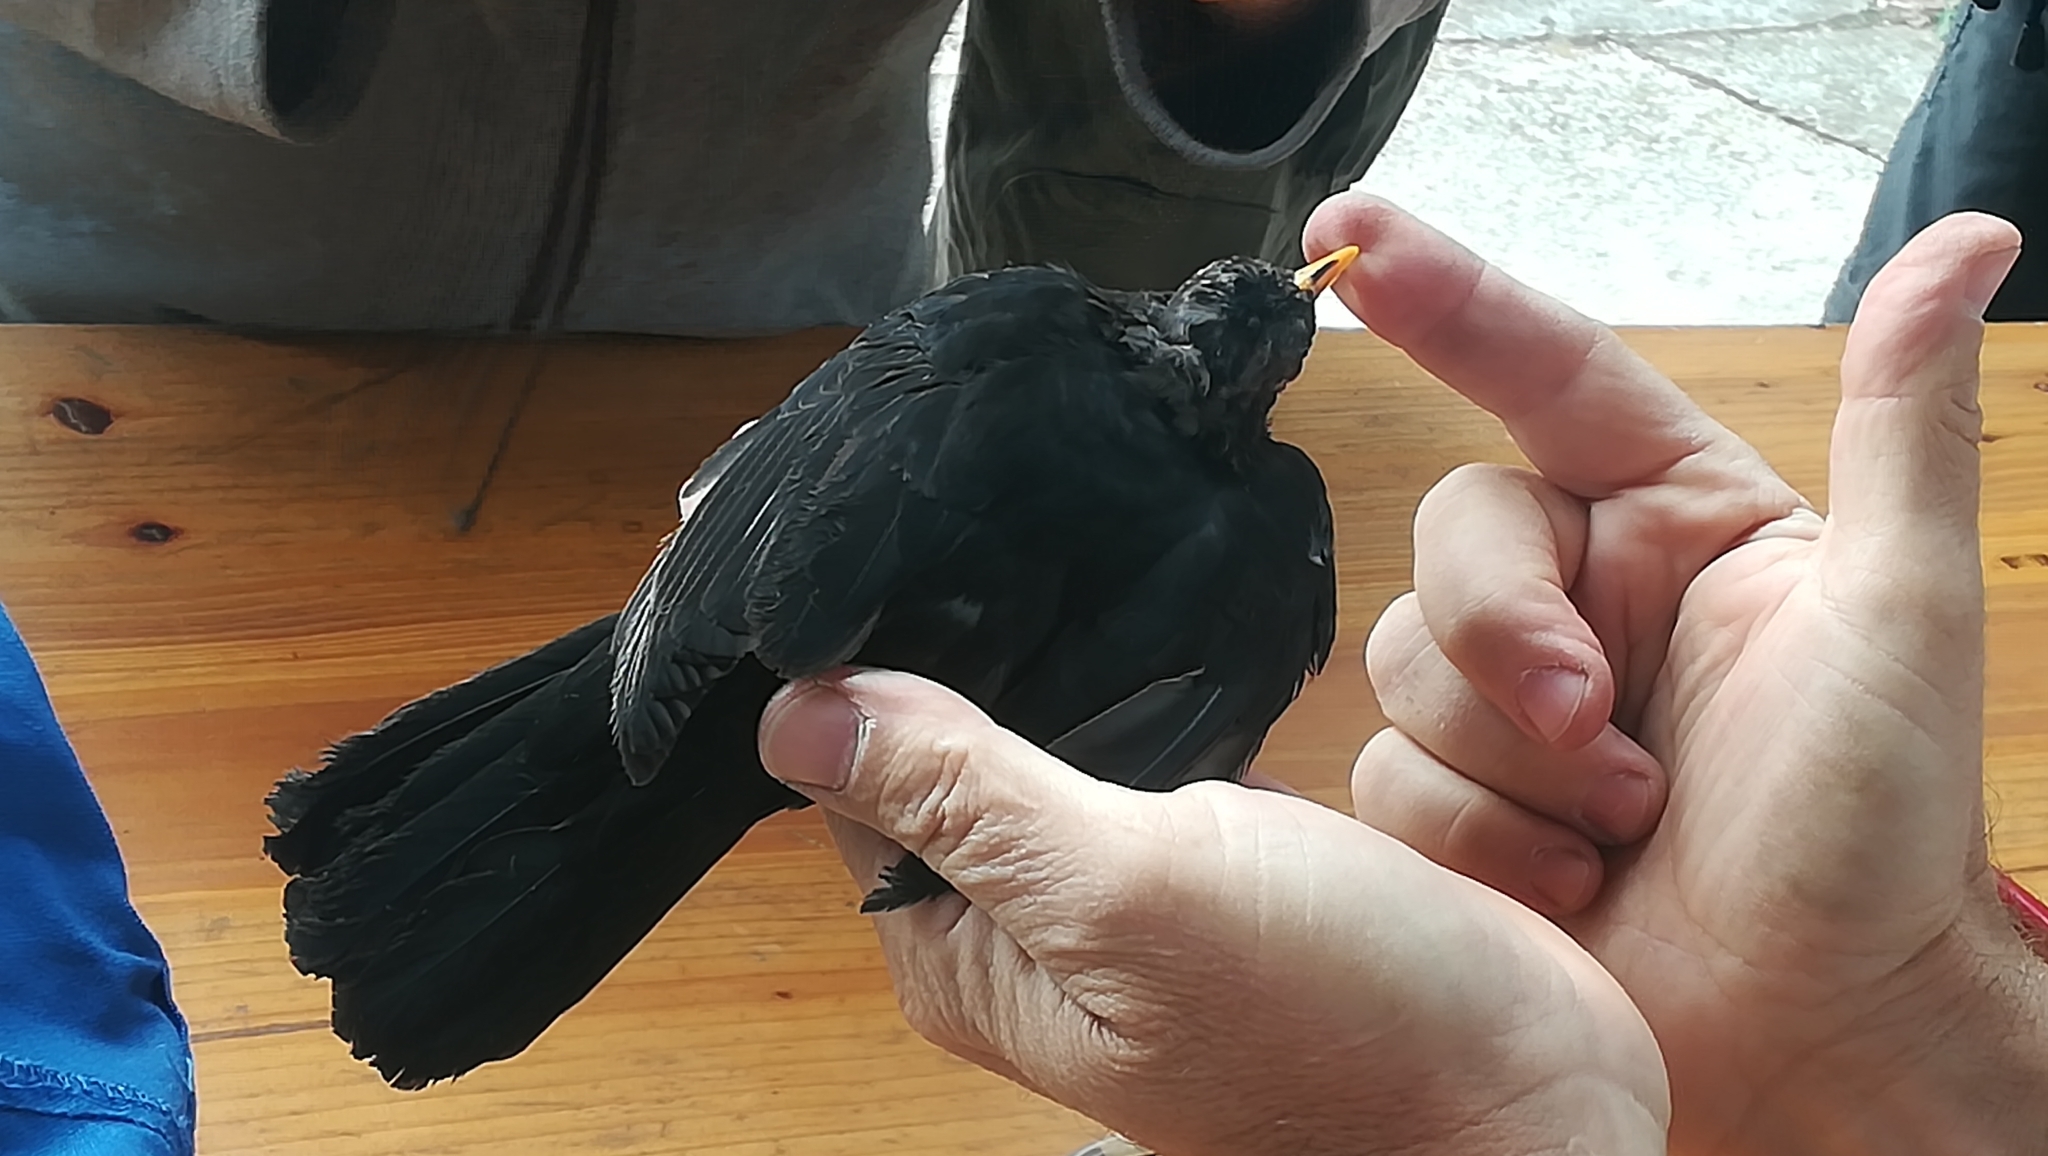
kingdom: Animalia
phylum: Chordata
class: Aves
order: Passeriformes
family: Turdidae
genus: Turdus
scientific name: Turdus merula
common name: Common blackbird
